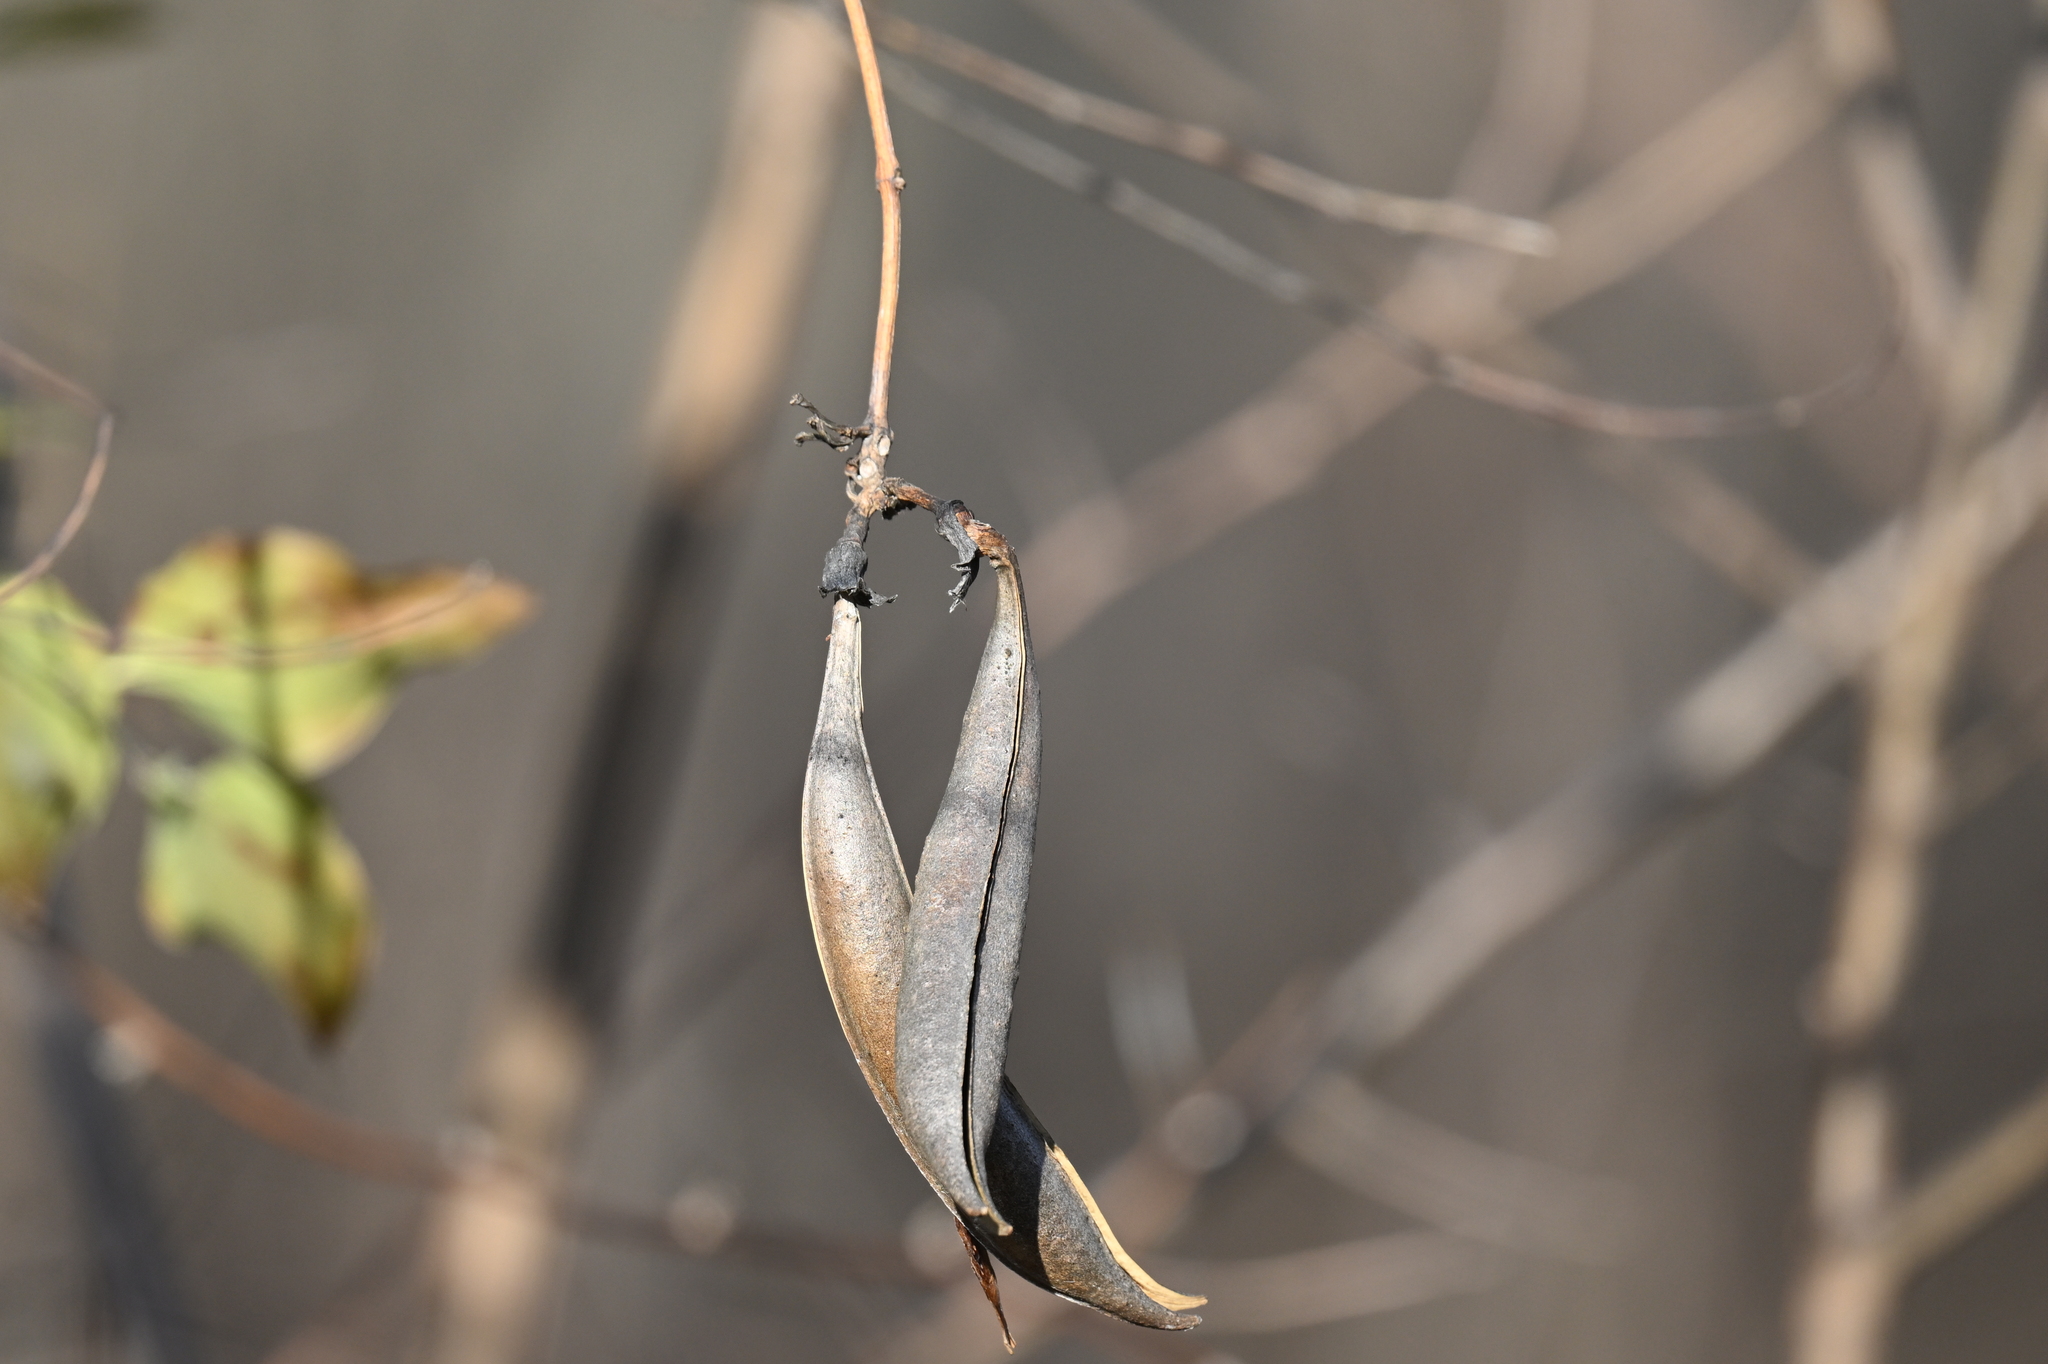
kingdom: Plantae
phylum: Tracheophyta
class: Magnoliopsida
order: Lamiales
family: Bignoniaceae
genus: Campsis
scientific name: Campsis radicans
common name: Trumpet-creeper
